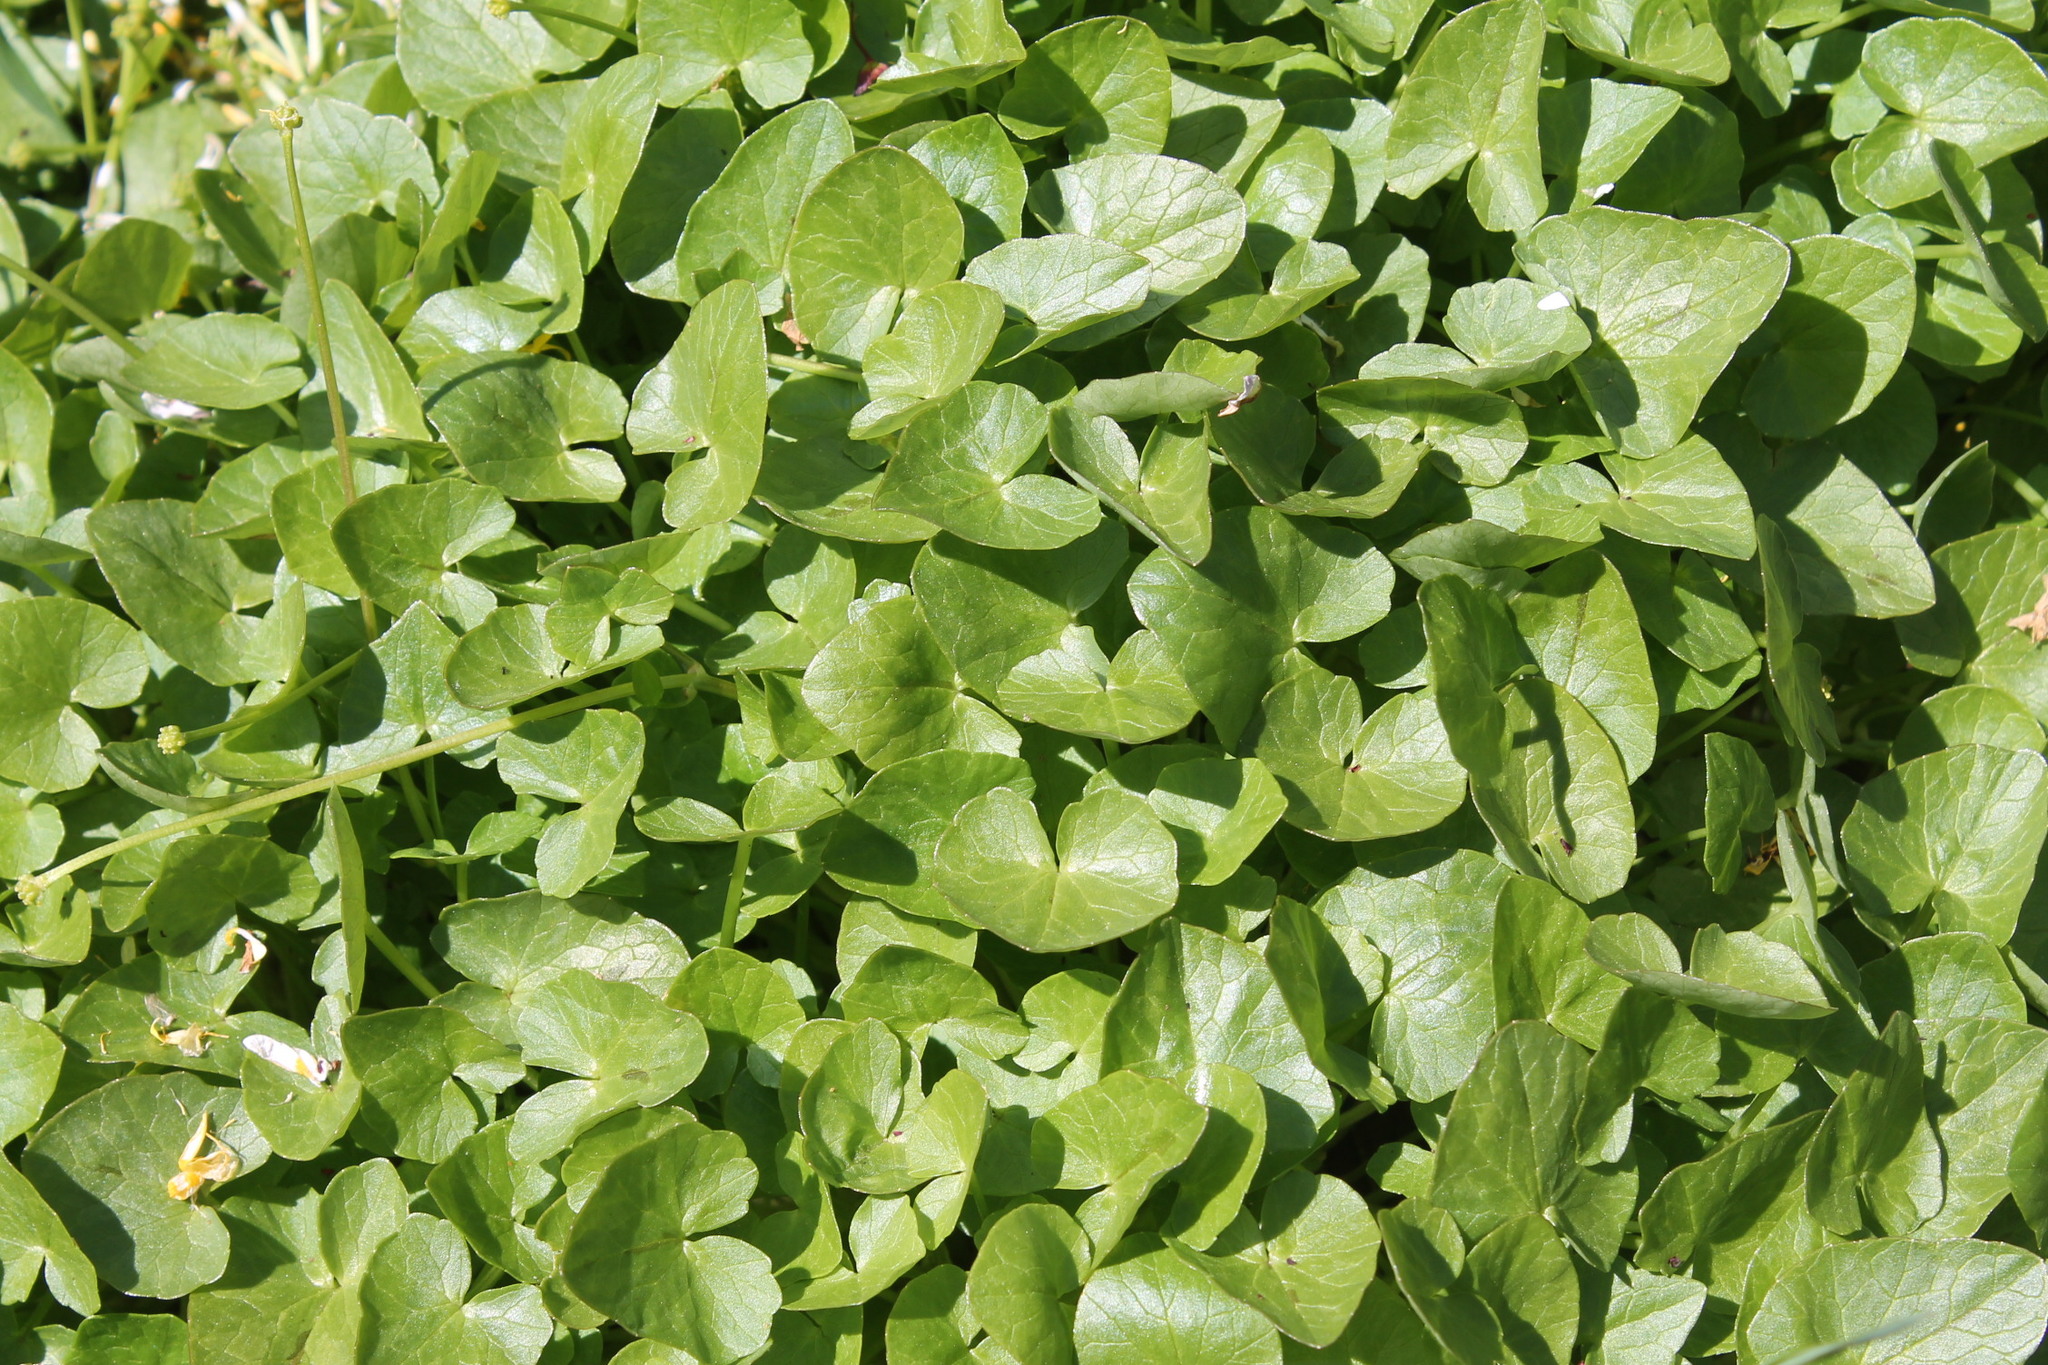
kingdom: Plantae
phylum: Tracheophyta
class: Magnoliopsida
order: Ranunculales
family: Ranunculaceae
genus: Ficaria
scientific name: Ficaria verna
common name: Lesser celandine
